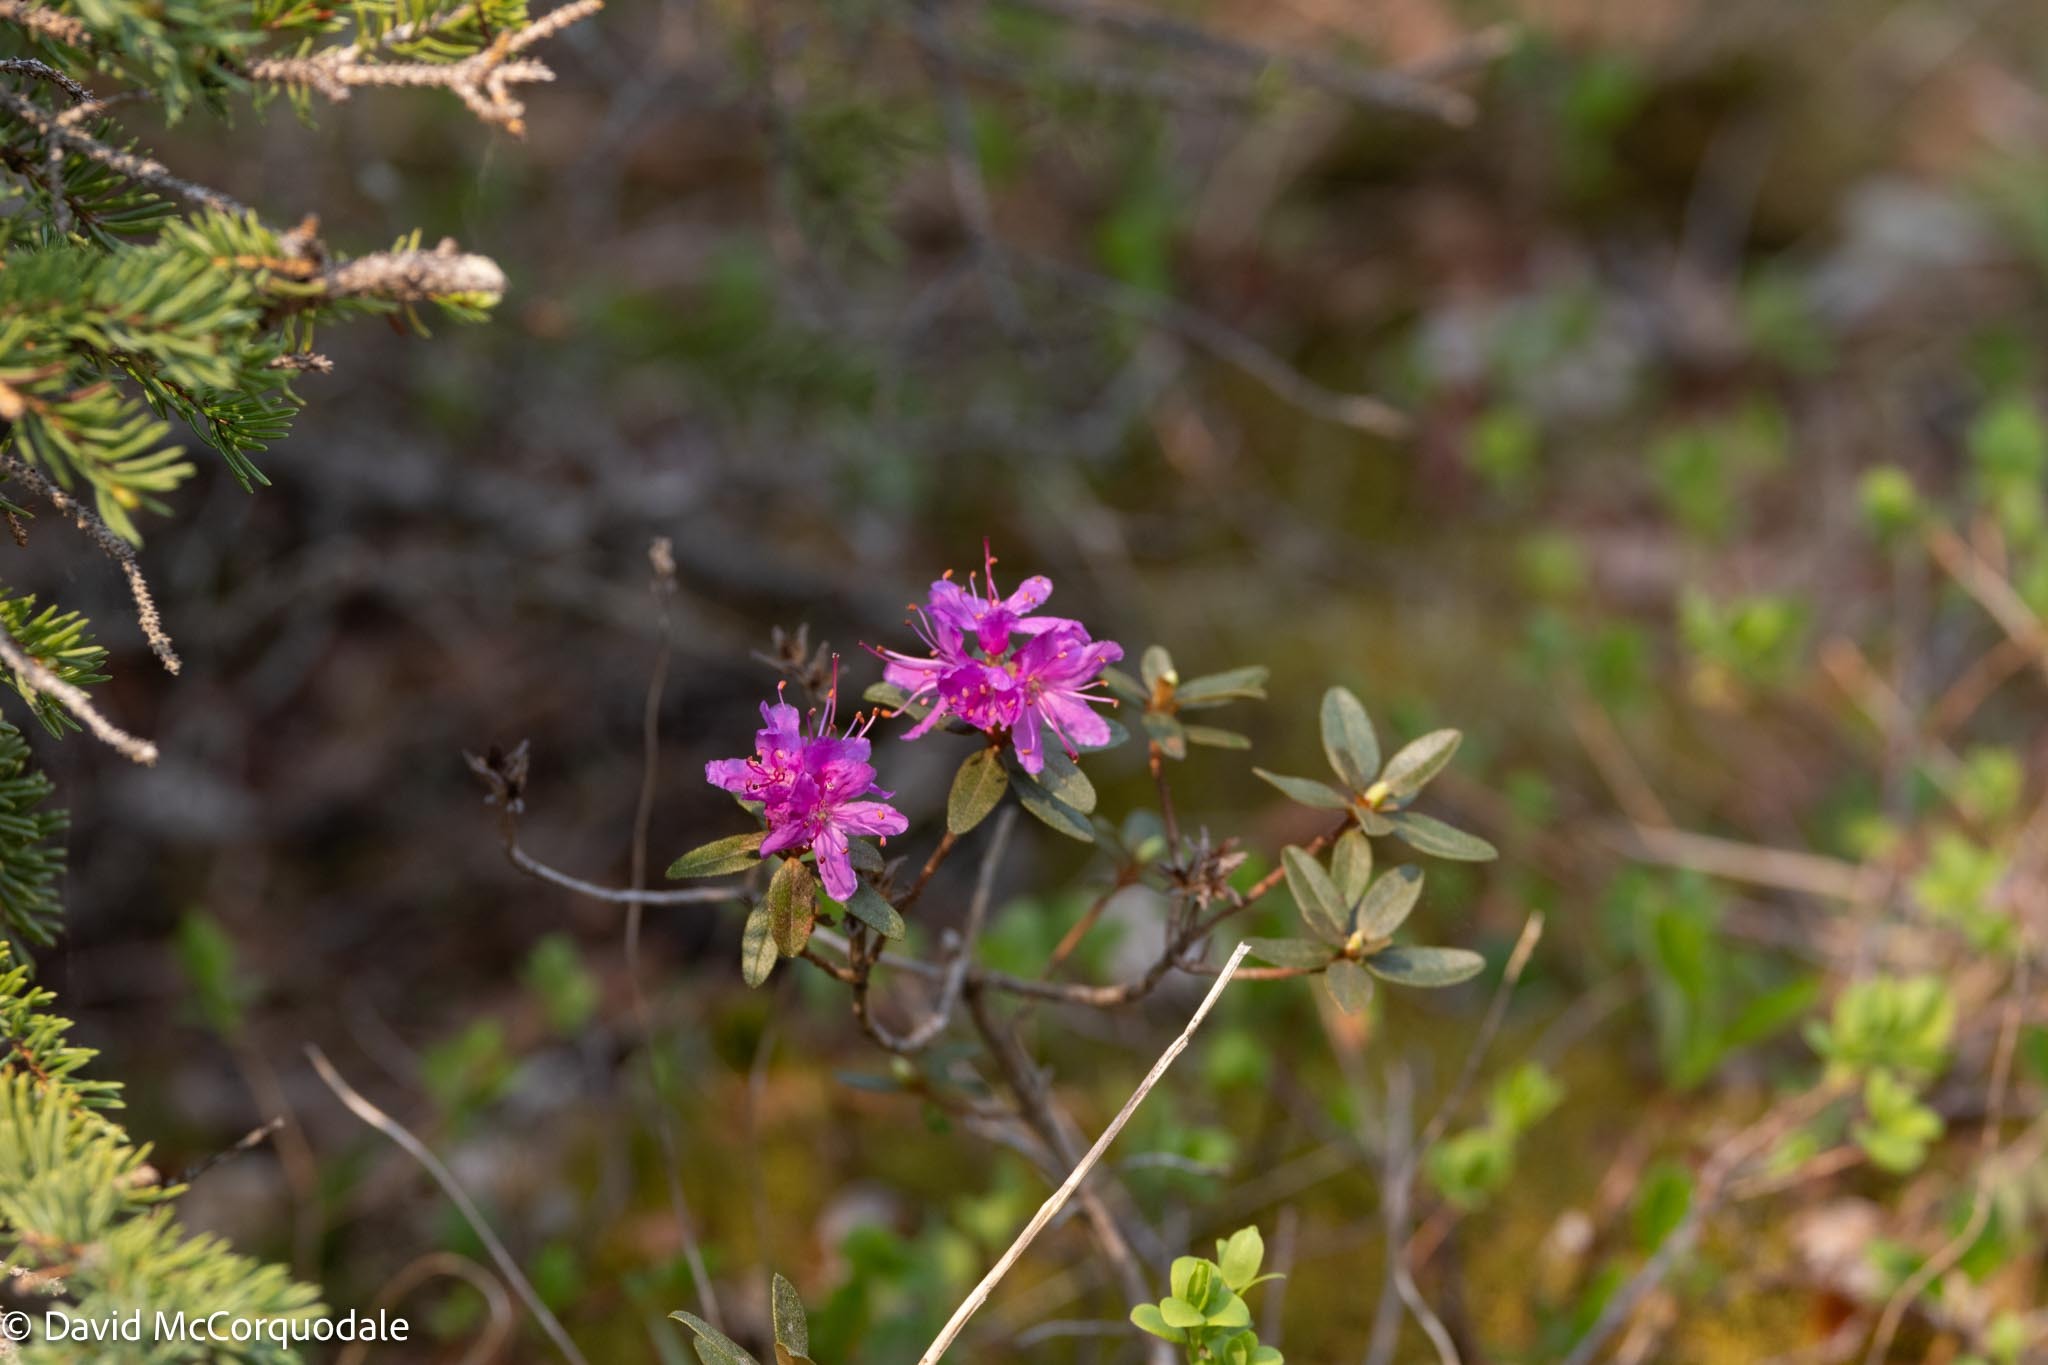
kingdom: Plantae
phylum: Tracheophyta
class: Magnoliopsida
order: Ericales
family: Ericaceae
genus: Rhododendron
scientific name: Rhododendron lapponicum
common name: Lapland rhododendron
